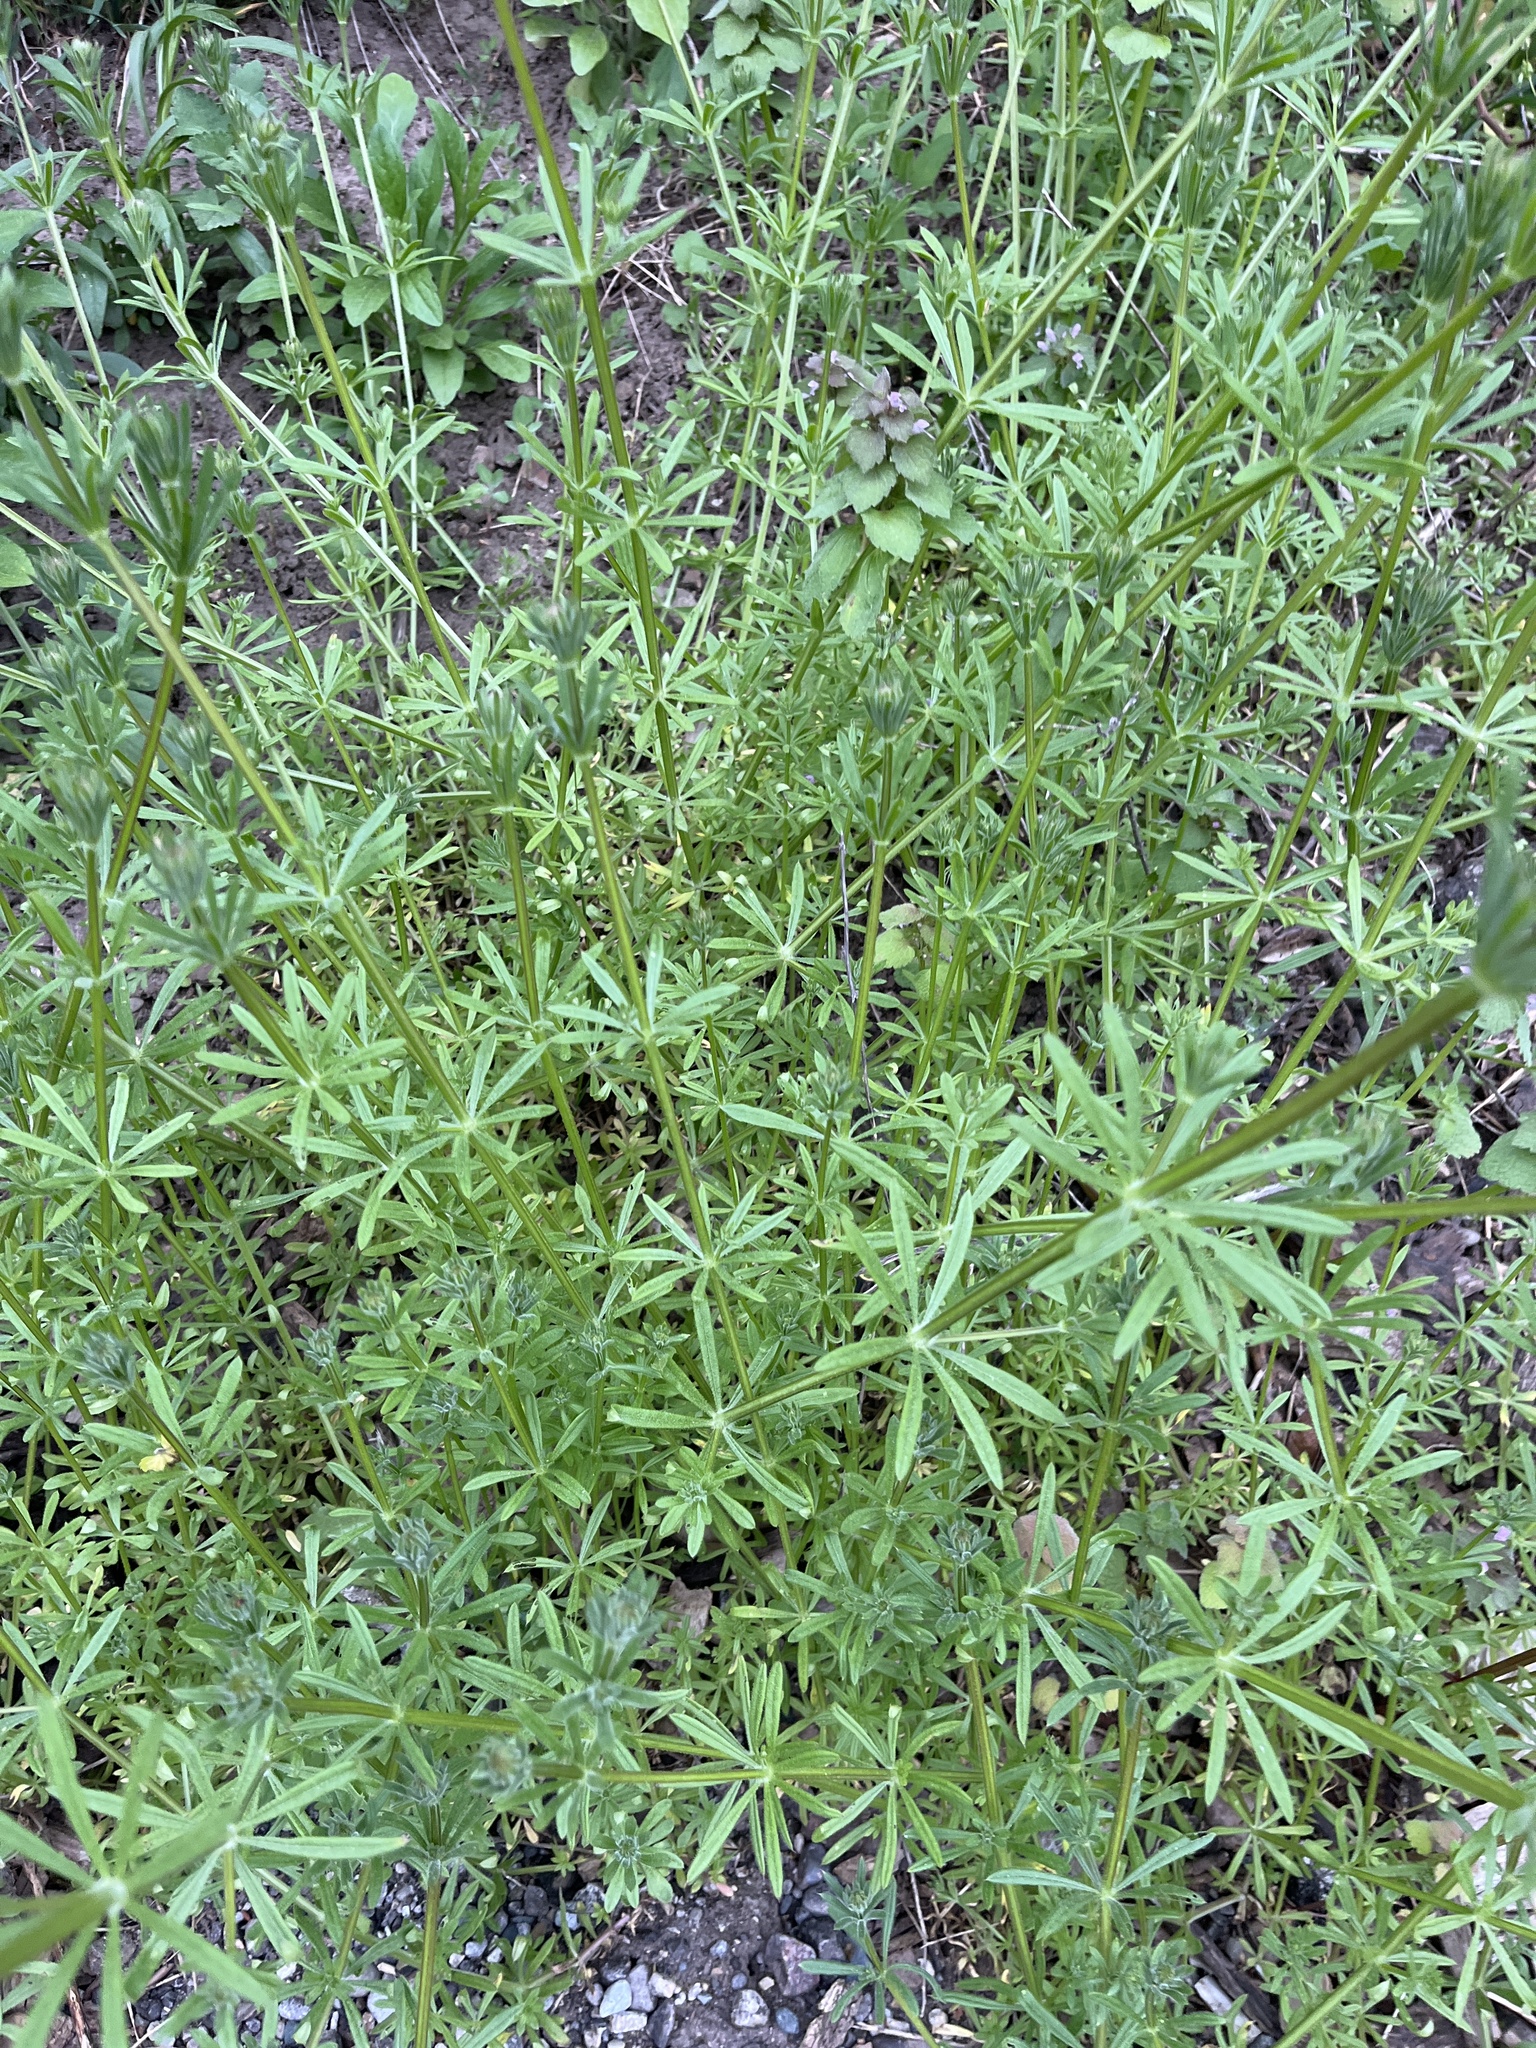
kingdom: Plantae
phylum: Tracheophyta
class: Magnoliopsida
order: Gentianales
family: Rubiaceae
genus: Galium
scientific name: Galium aparine
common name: Cleavers
